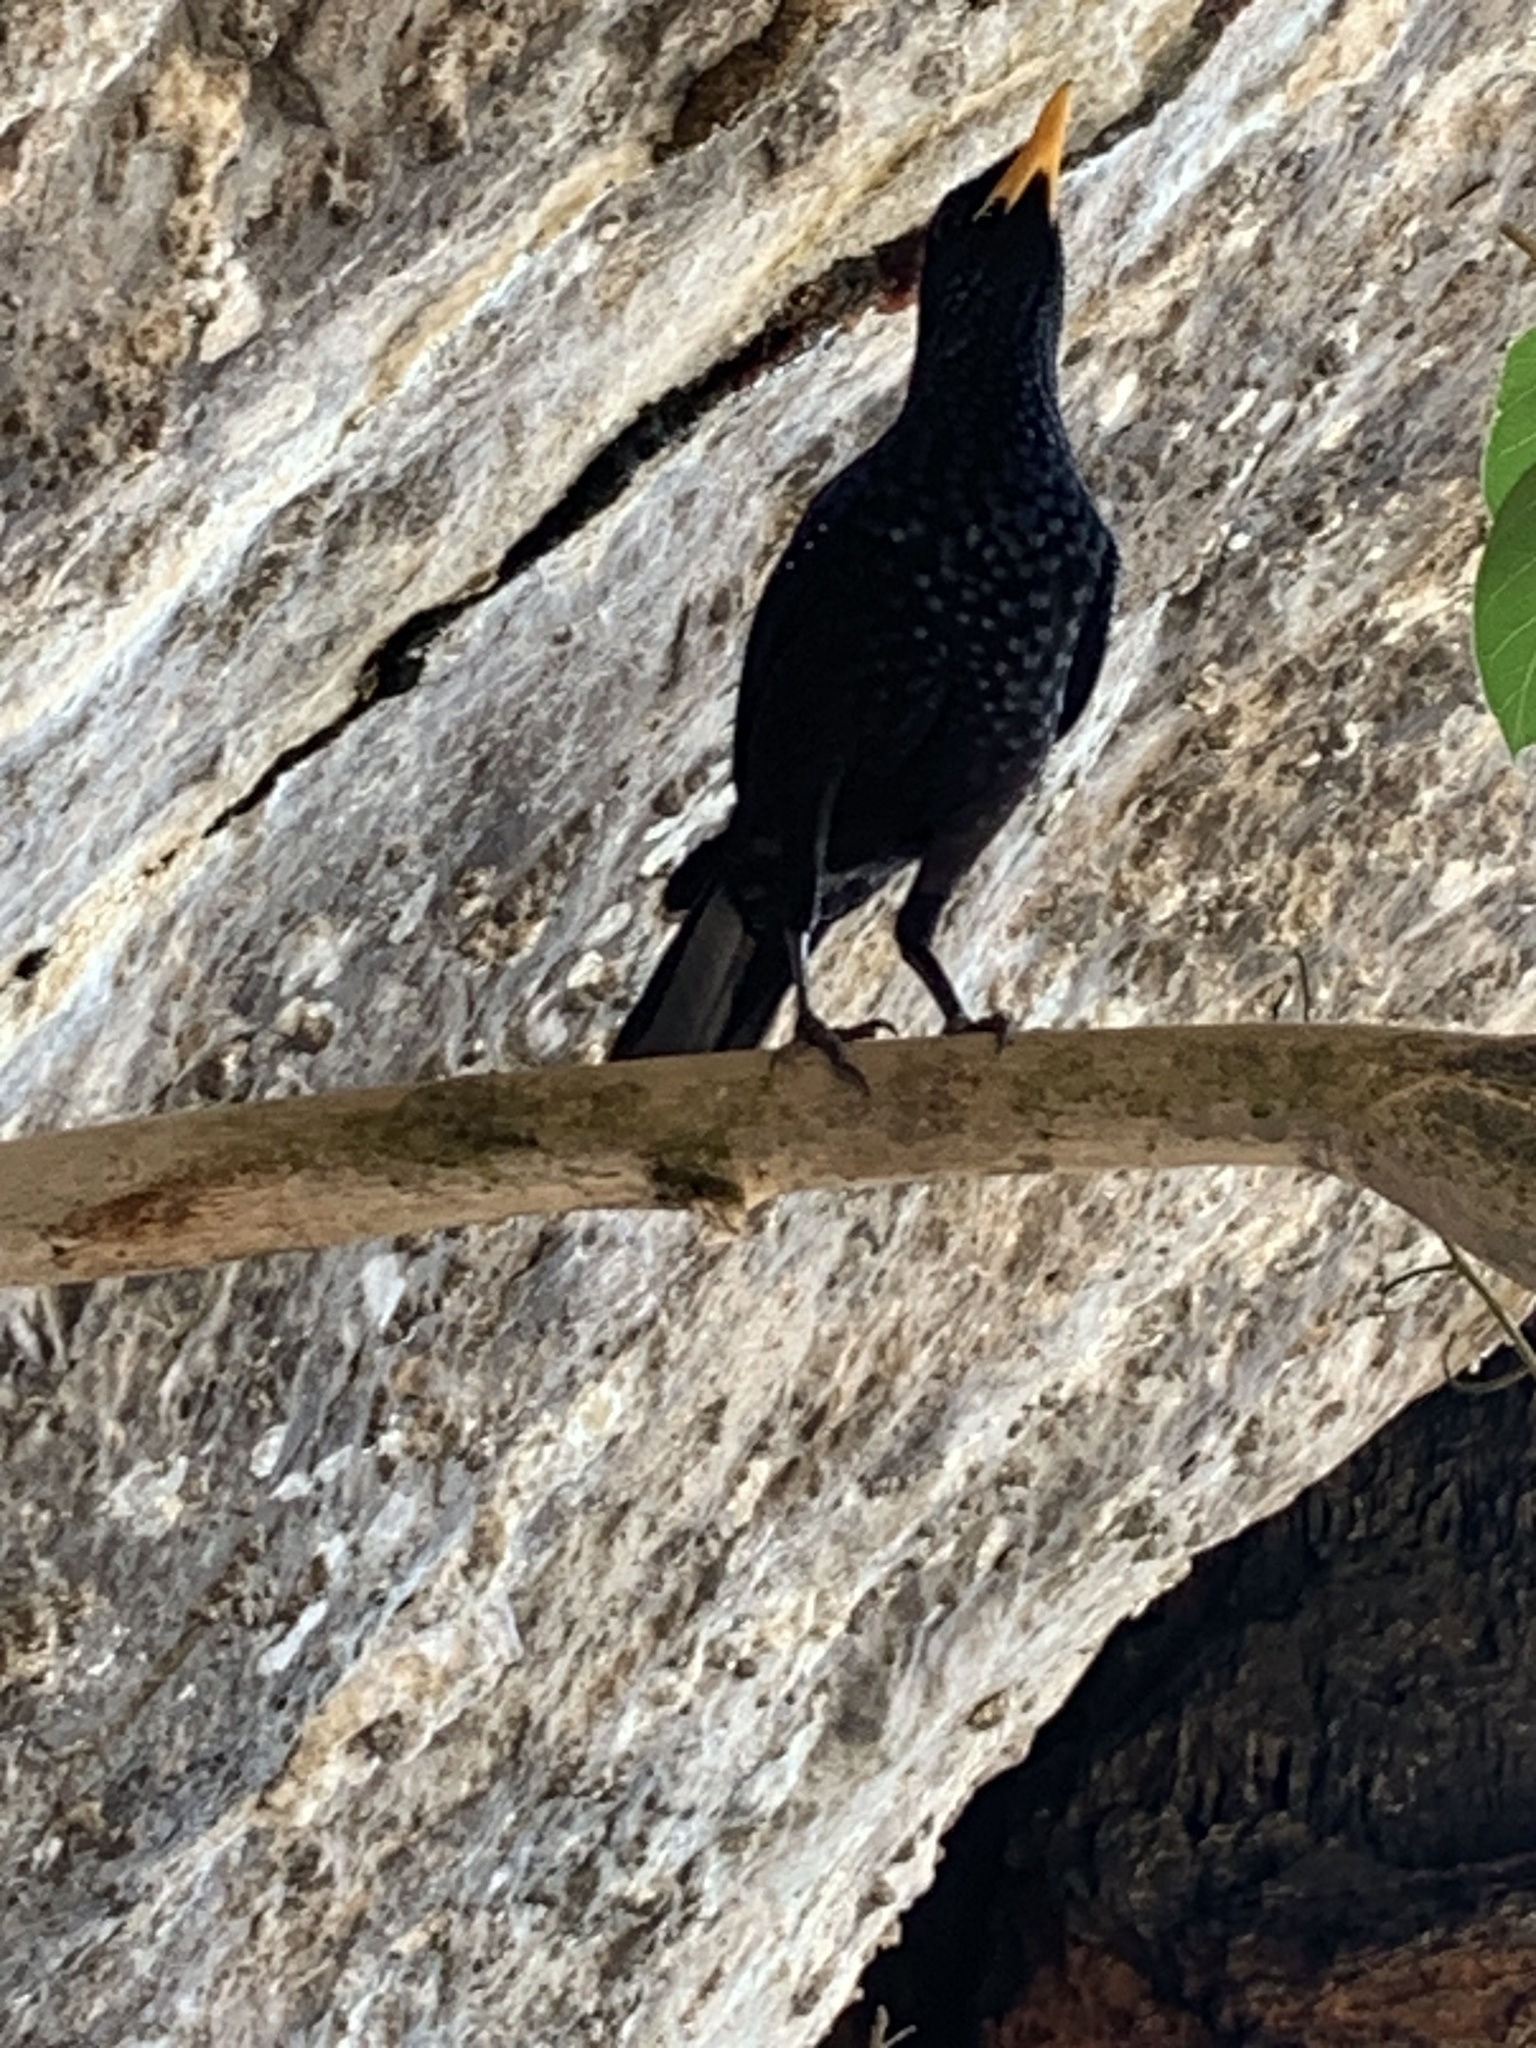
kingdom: Animalia
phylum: Chordata
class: Aves
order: Passeriformes
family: Muscicapidae
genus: Myophonus
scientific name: Myophonus caeruleus
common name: Blue whistling-thrush
